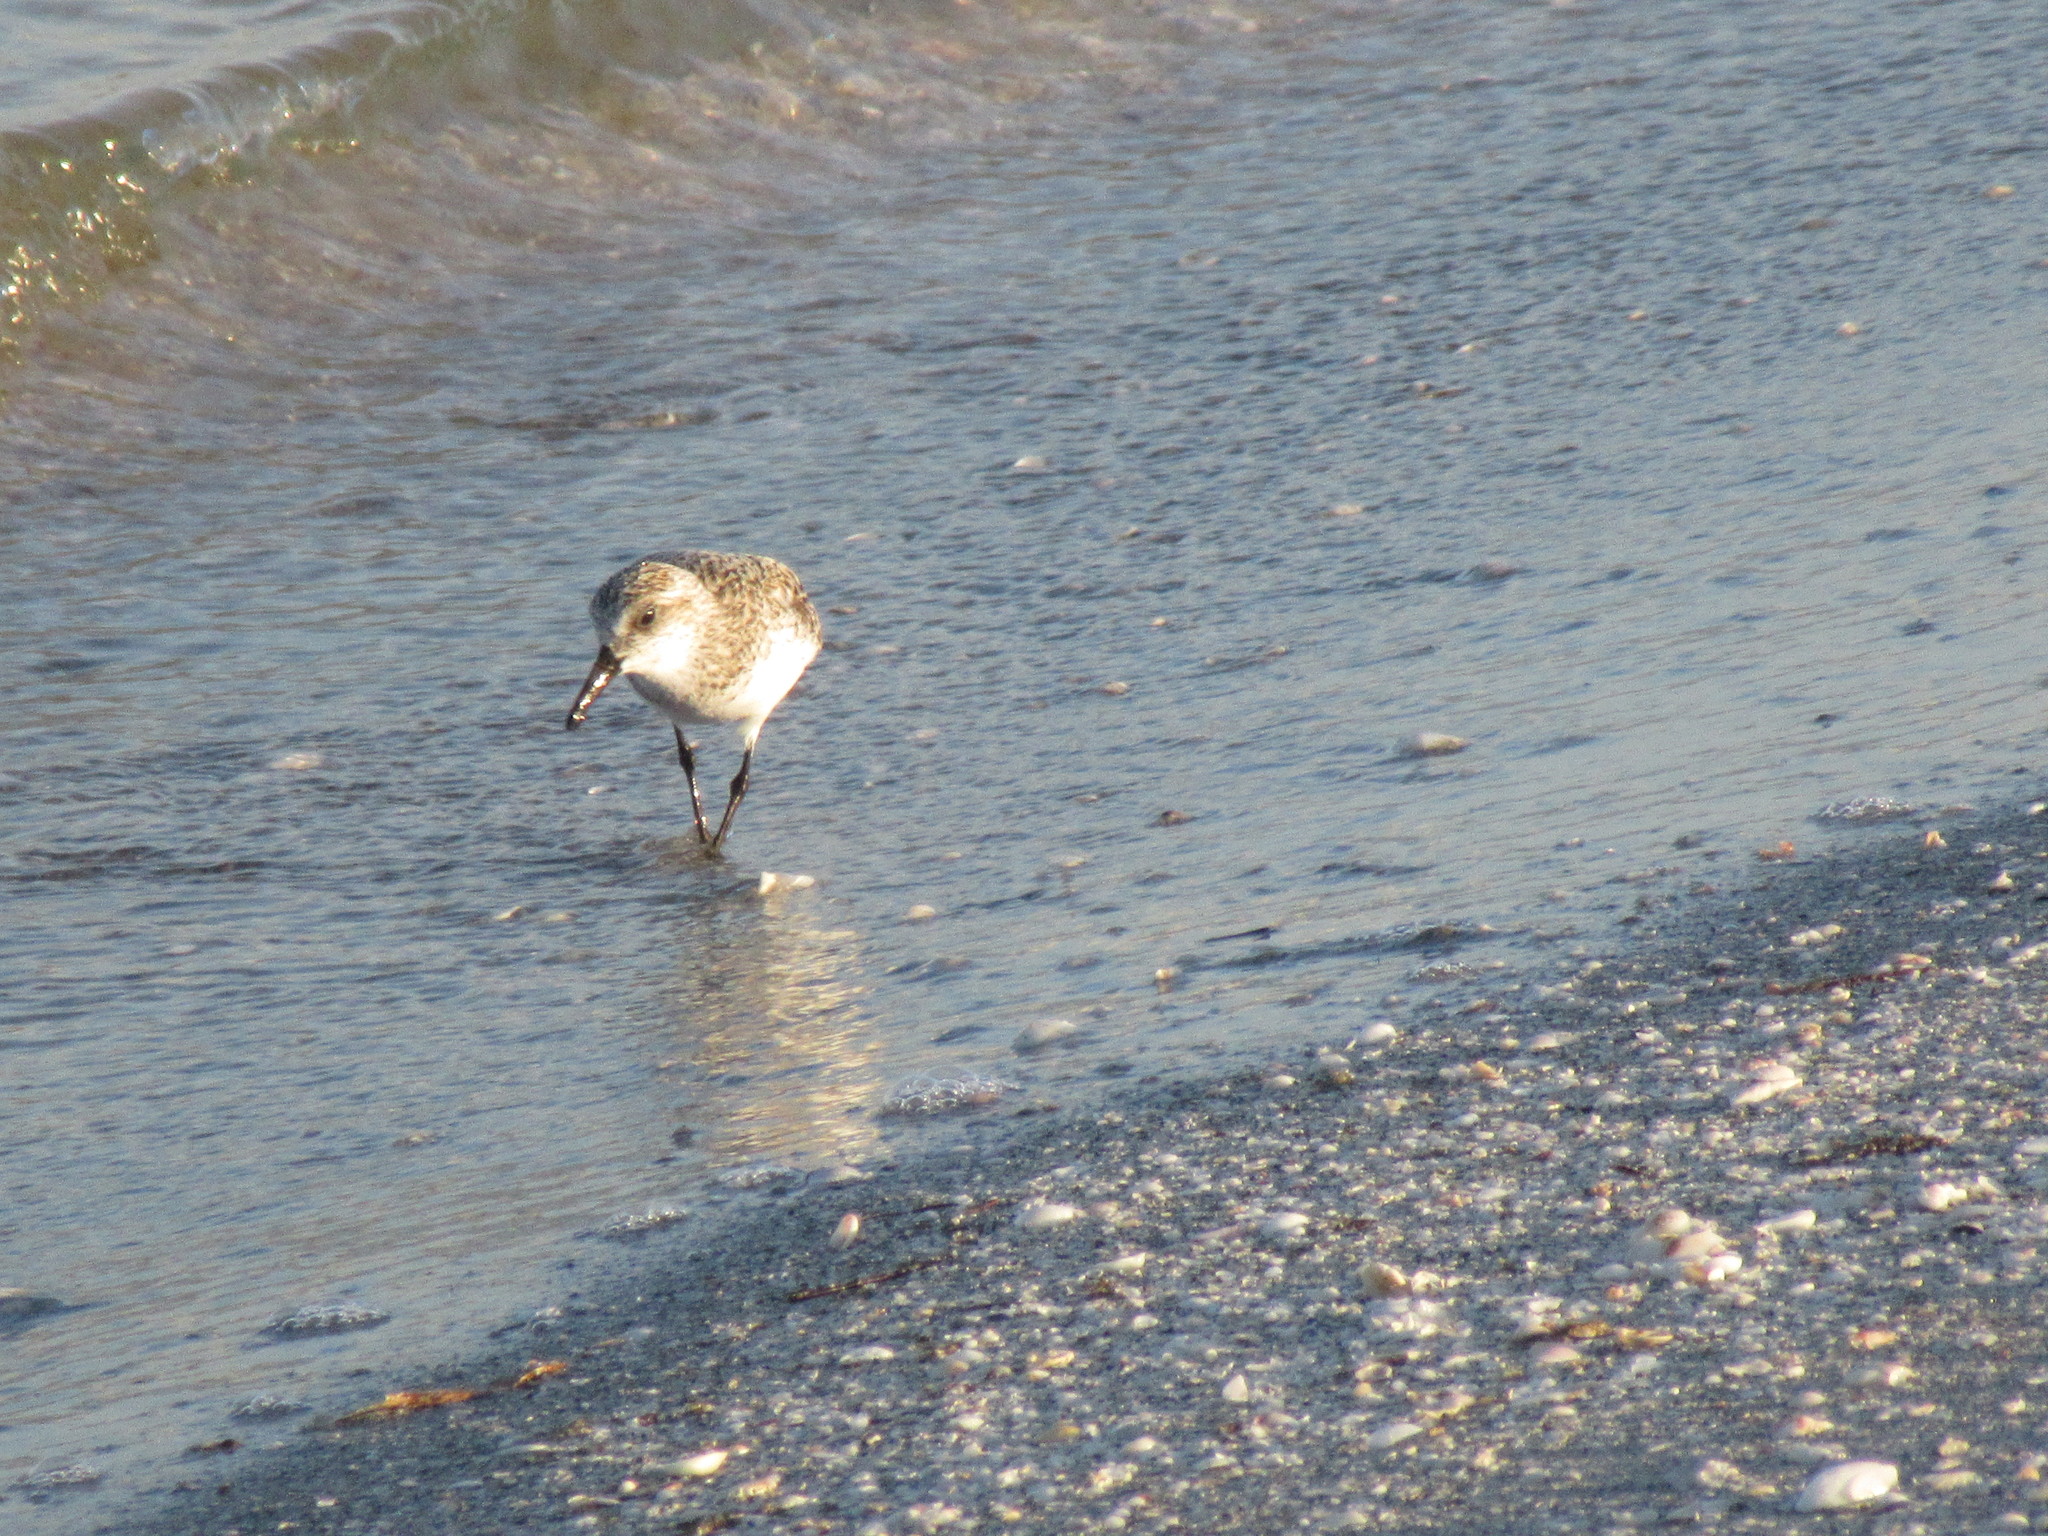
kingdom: Animalia
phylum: Chordata
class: Aves
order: Charadriiformes
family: Scolopacidae
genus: Calidris
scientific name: Calidris alba
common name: Sanderling
